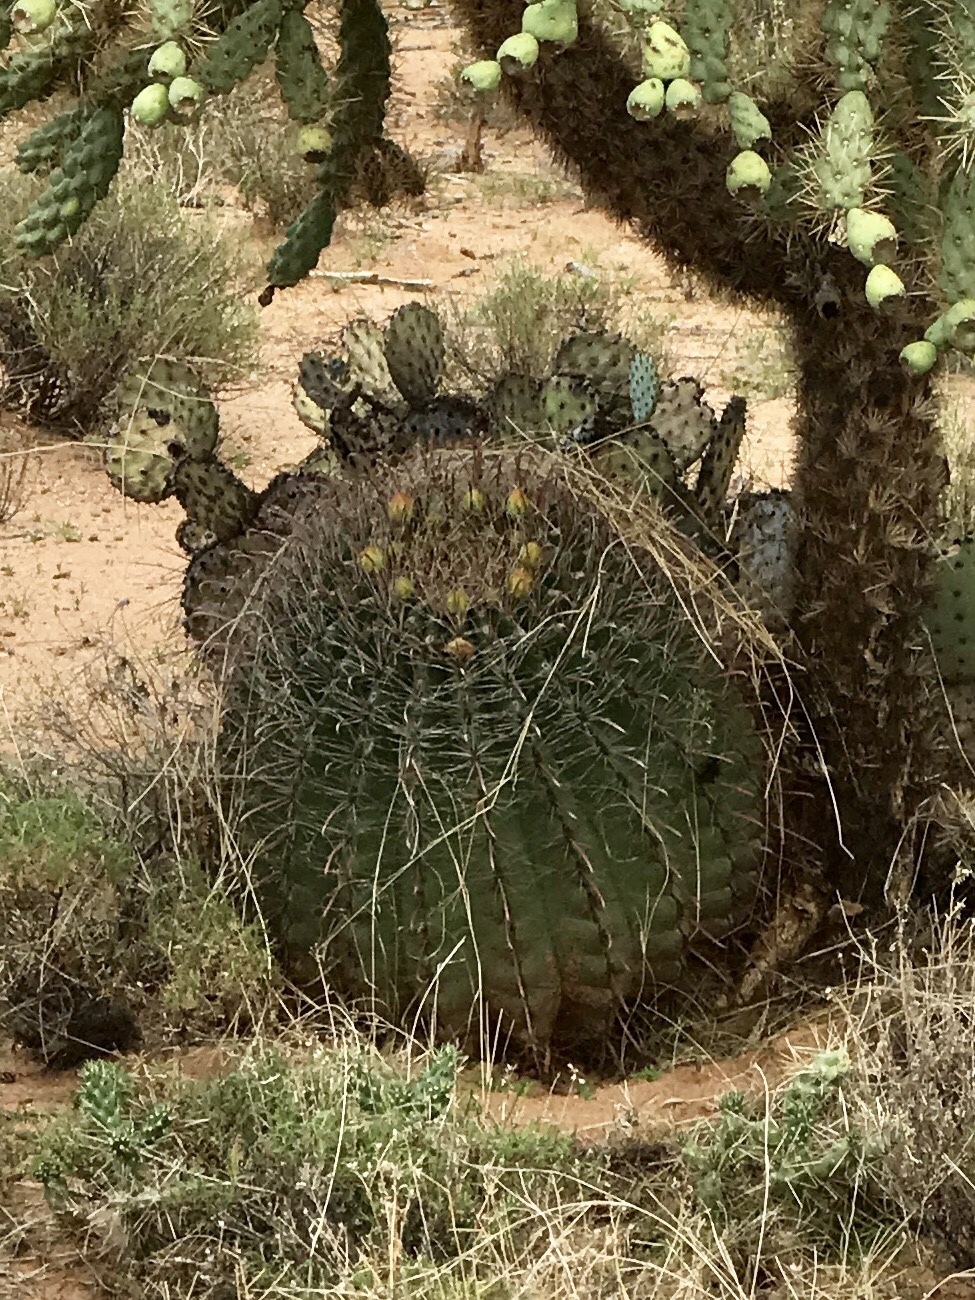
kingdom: Plantae
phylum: Tracheophyta
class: Magnoliopsida
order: Caryophyllales
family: Cactaceae
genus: Ferocactus
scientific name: Ferocactus wislizeni
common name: Candy barrel cactus
